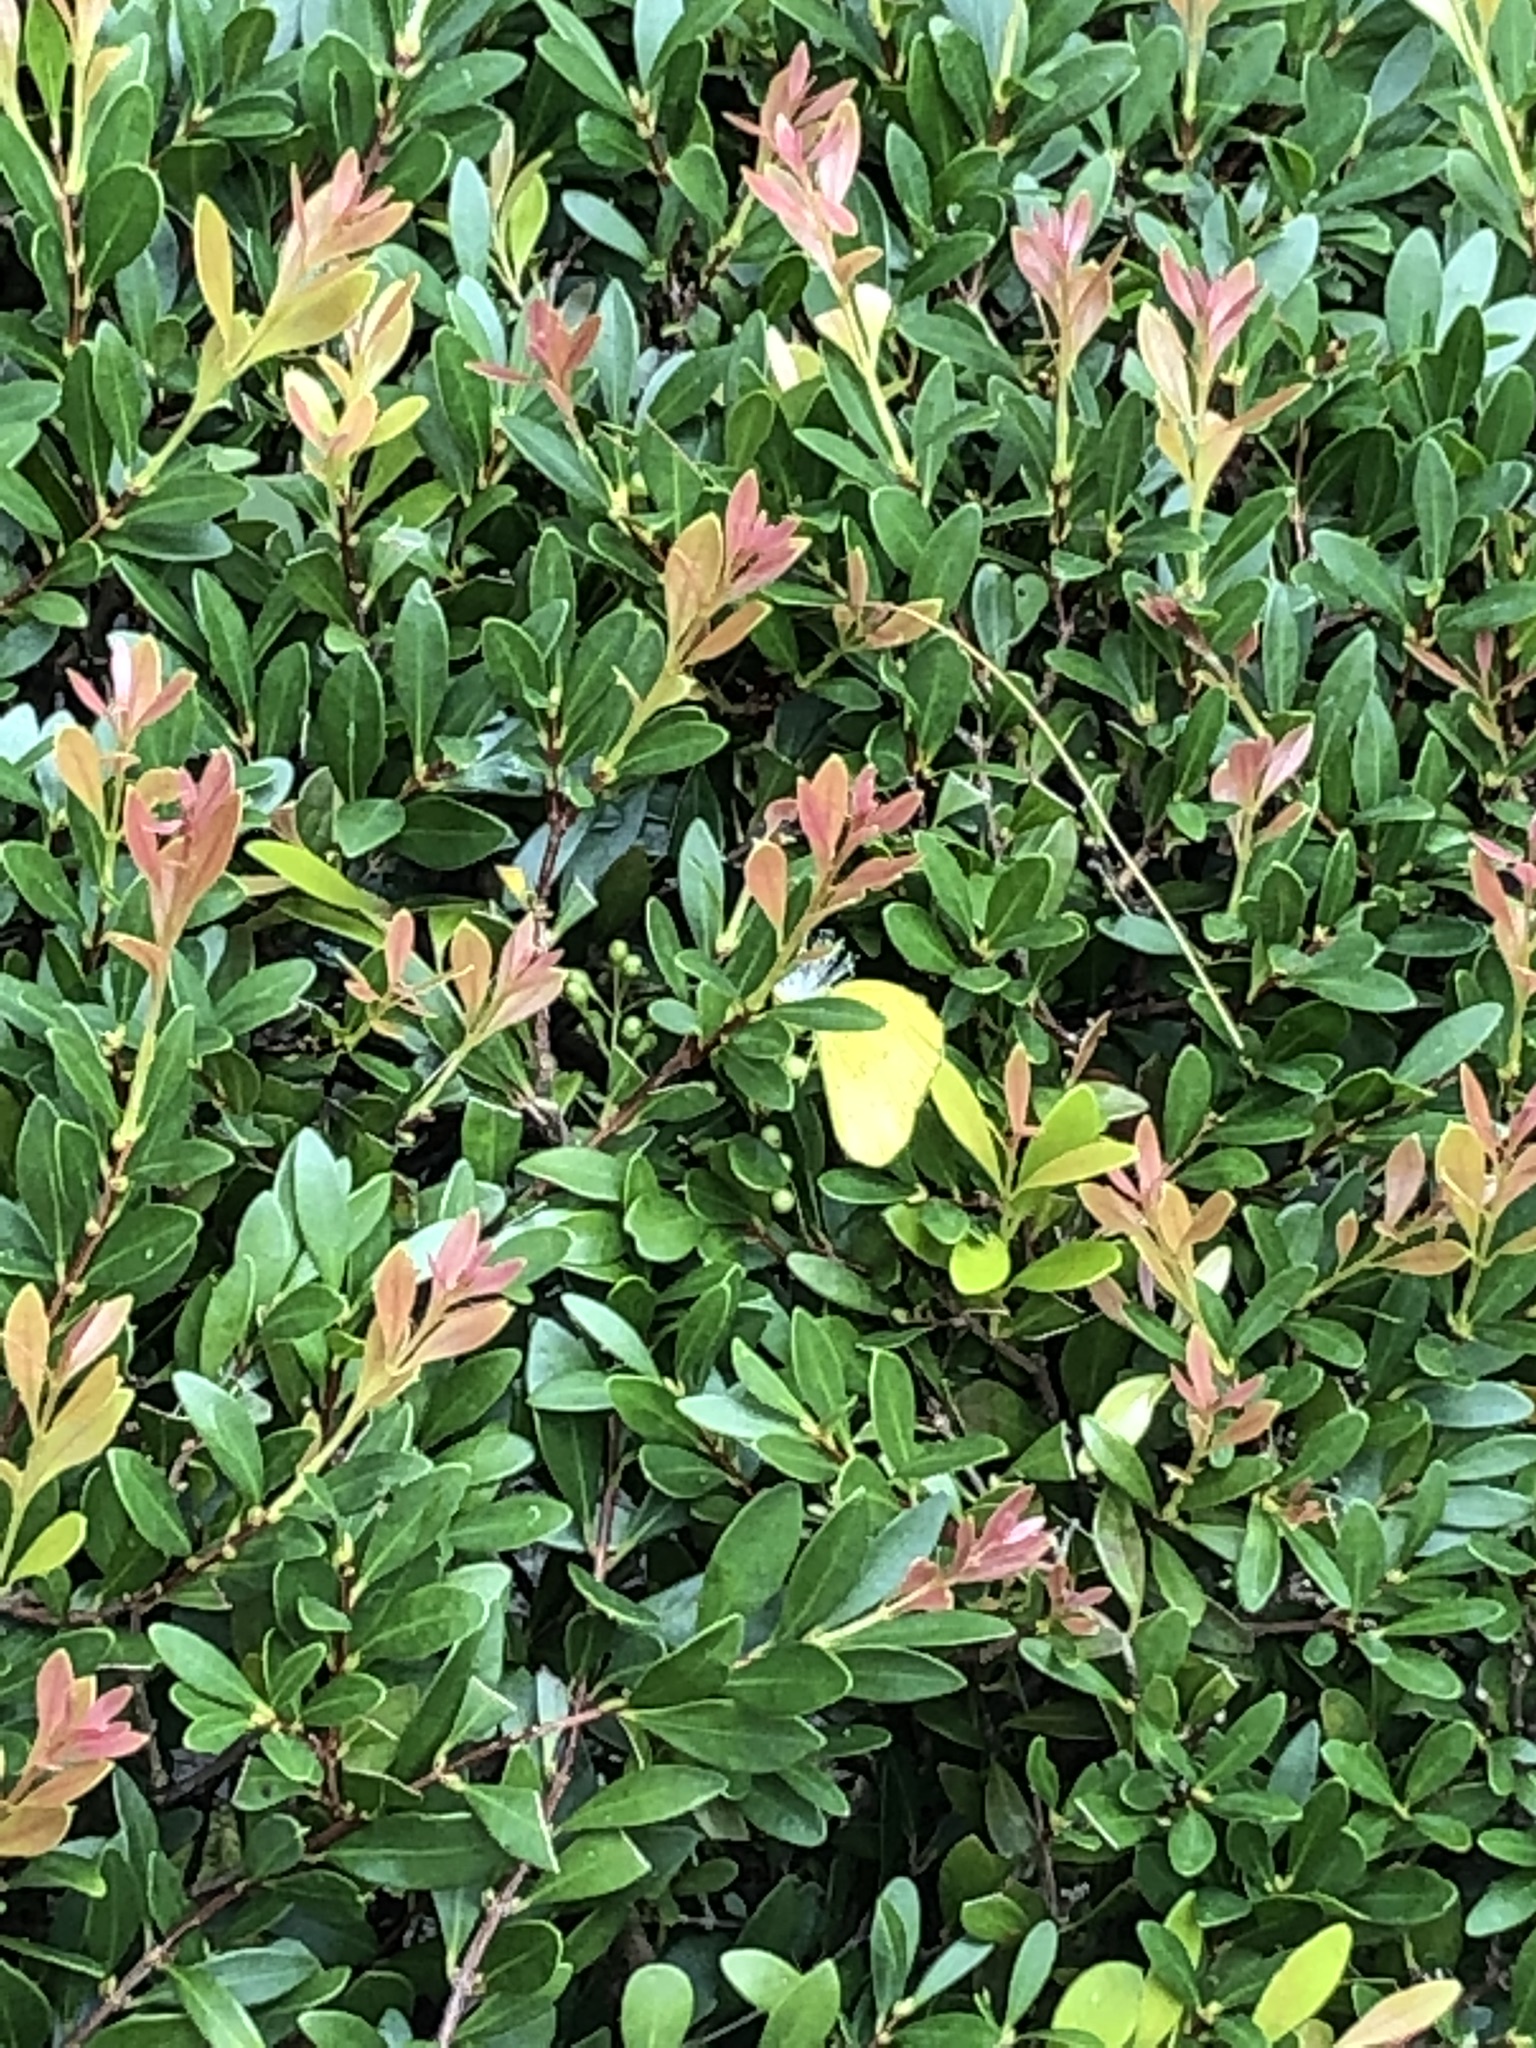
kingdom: Animalia
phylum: Arthropoda
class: Insecta
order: Lepidoptera
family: Pieridae
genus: Eurema
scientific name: Eurema
